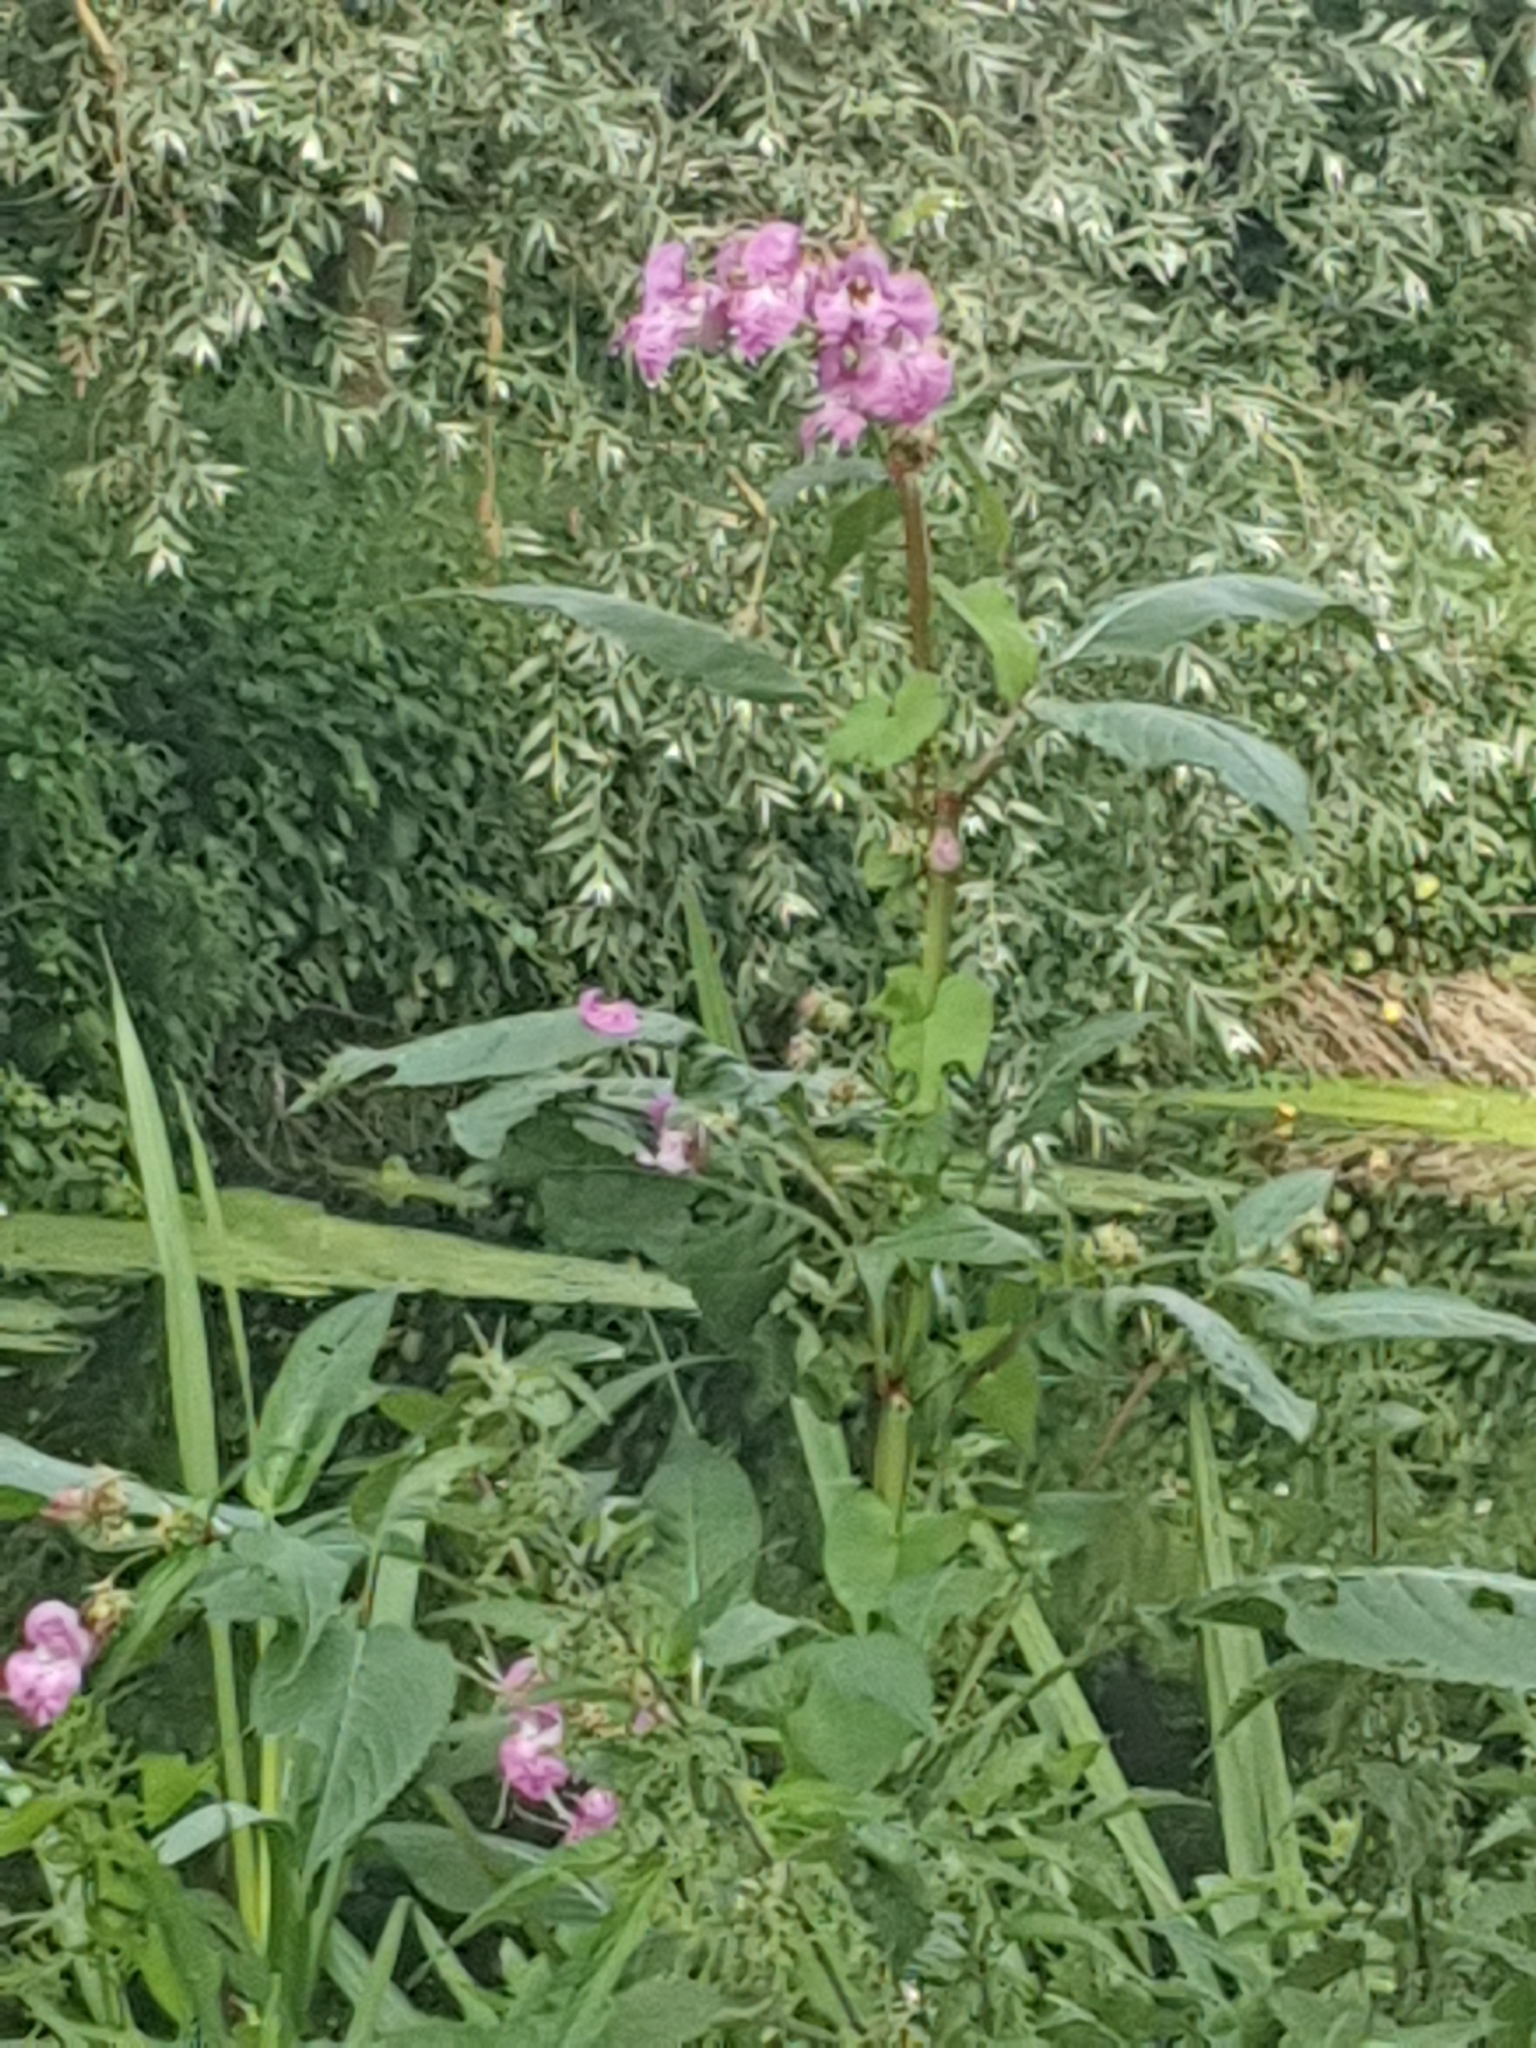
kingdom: Plantae
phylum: Tracheophyta
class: Magnoliopsida
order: Ericales
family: Balsaminaceae
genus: Impatiens
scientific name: Impatiens glandulifera
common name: Himalayan balsam
